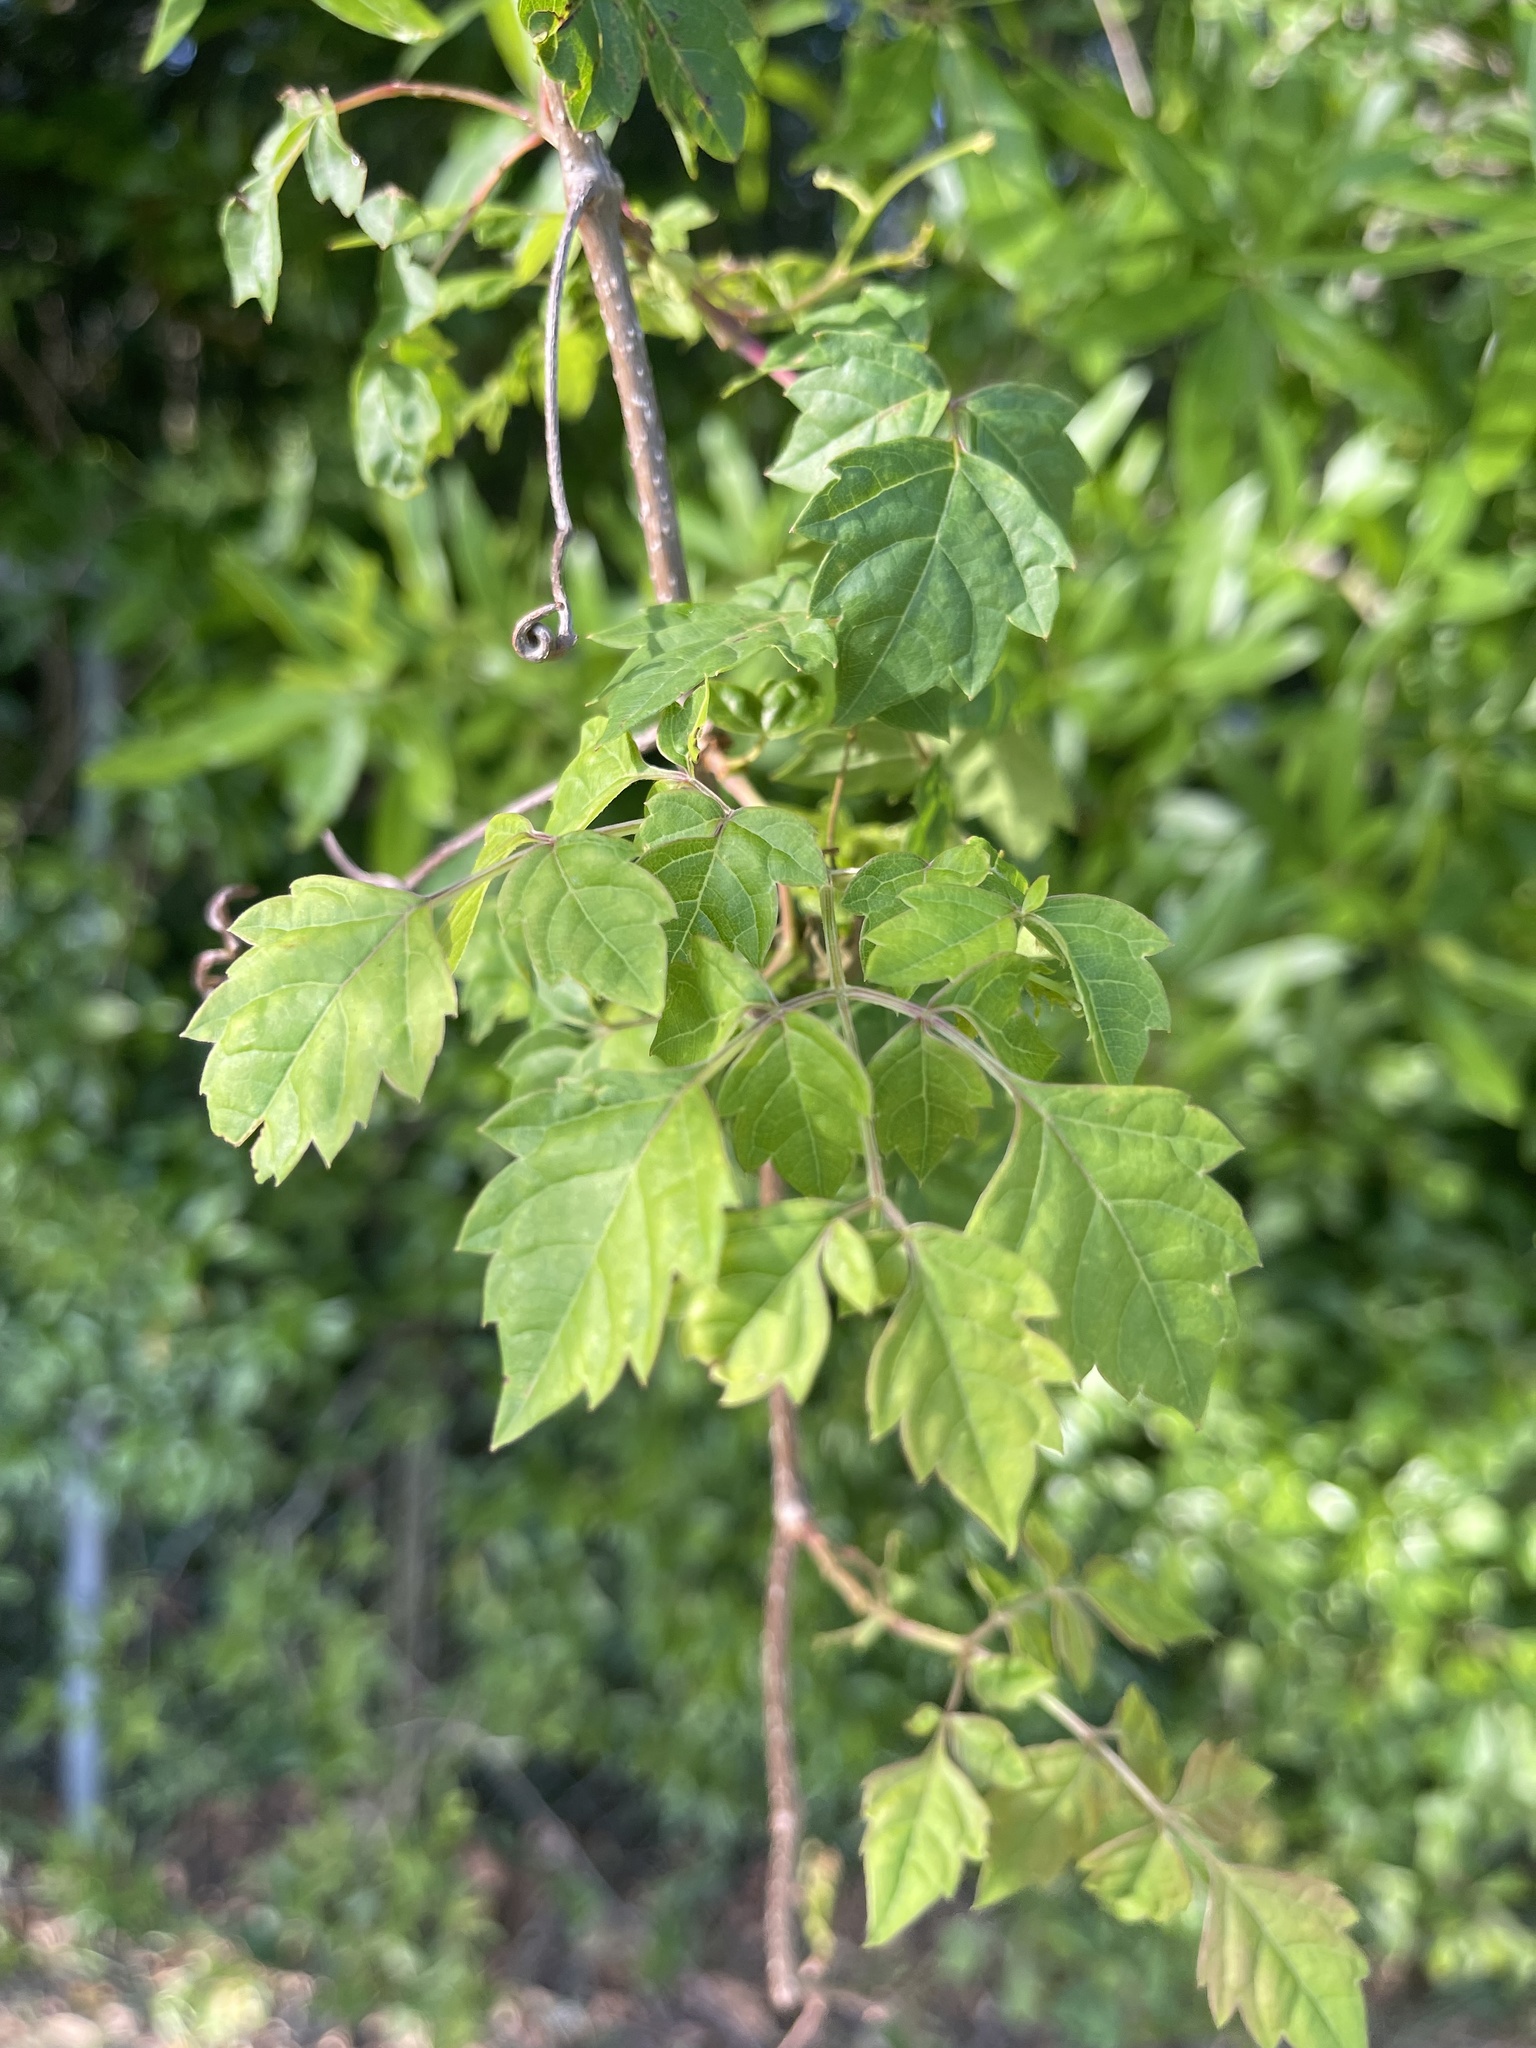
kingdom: Plantae
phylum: Tracheophyta
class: Magnoliopsida
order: Vitales
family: Vitaceae
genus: Nekemias
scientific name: Nekemias arborea
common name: Peppervine
